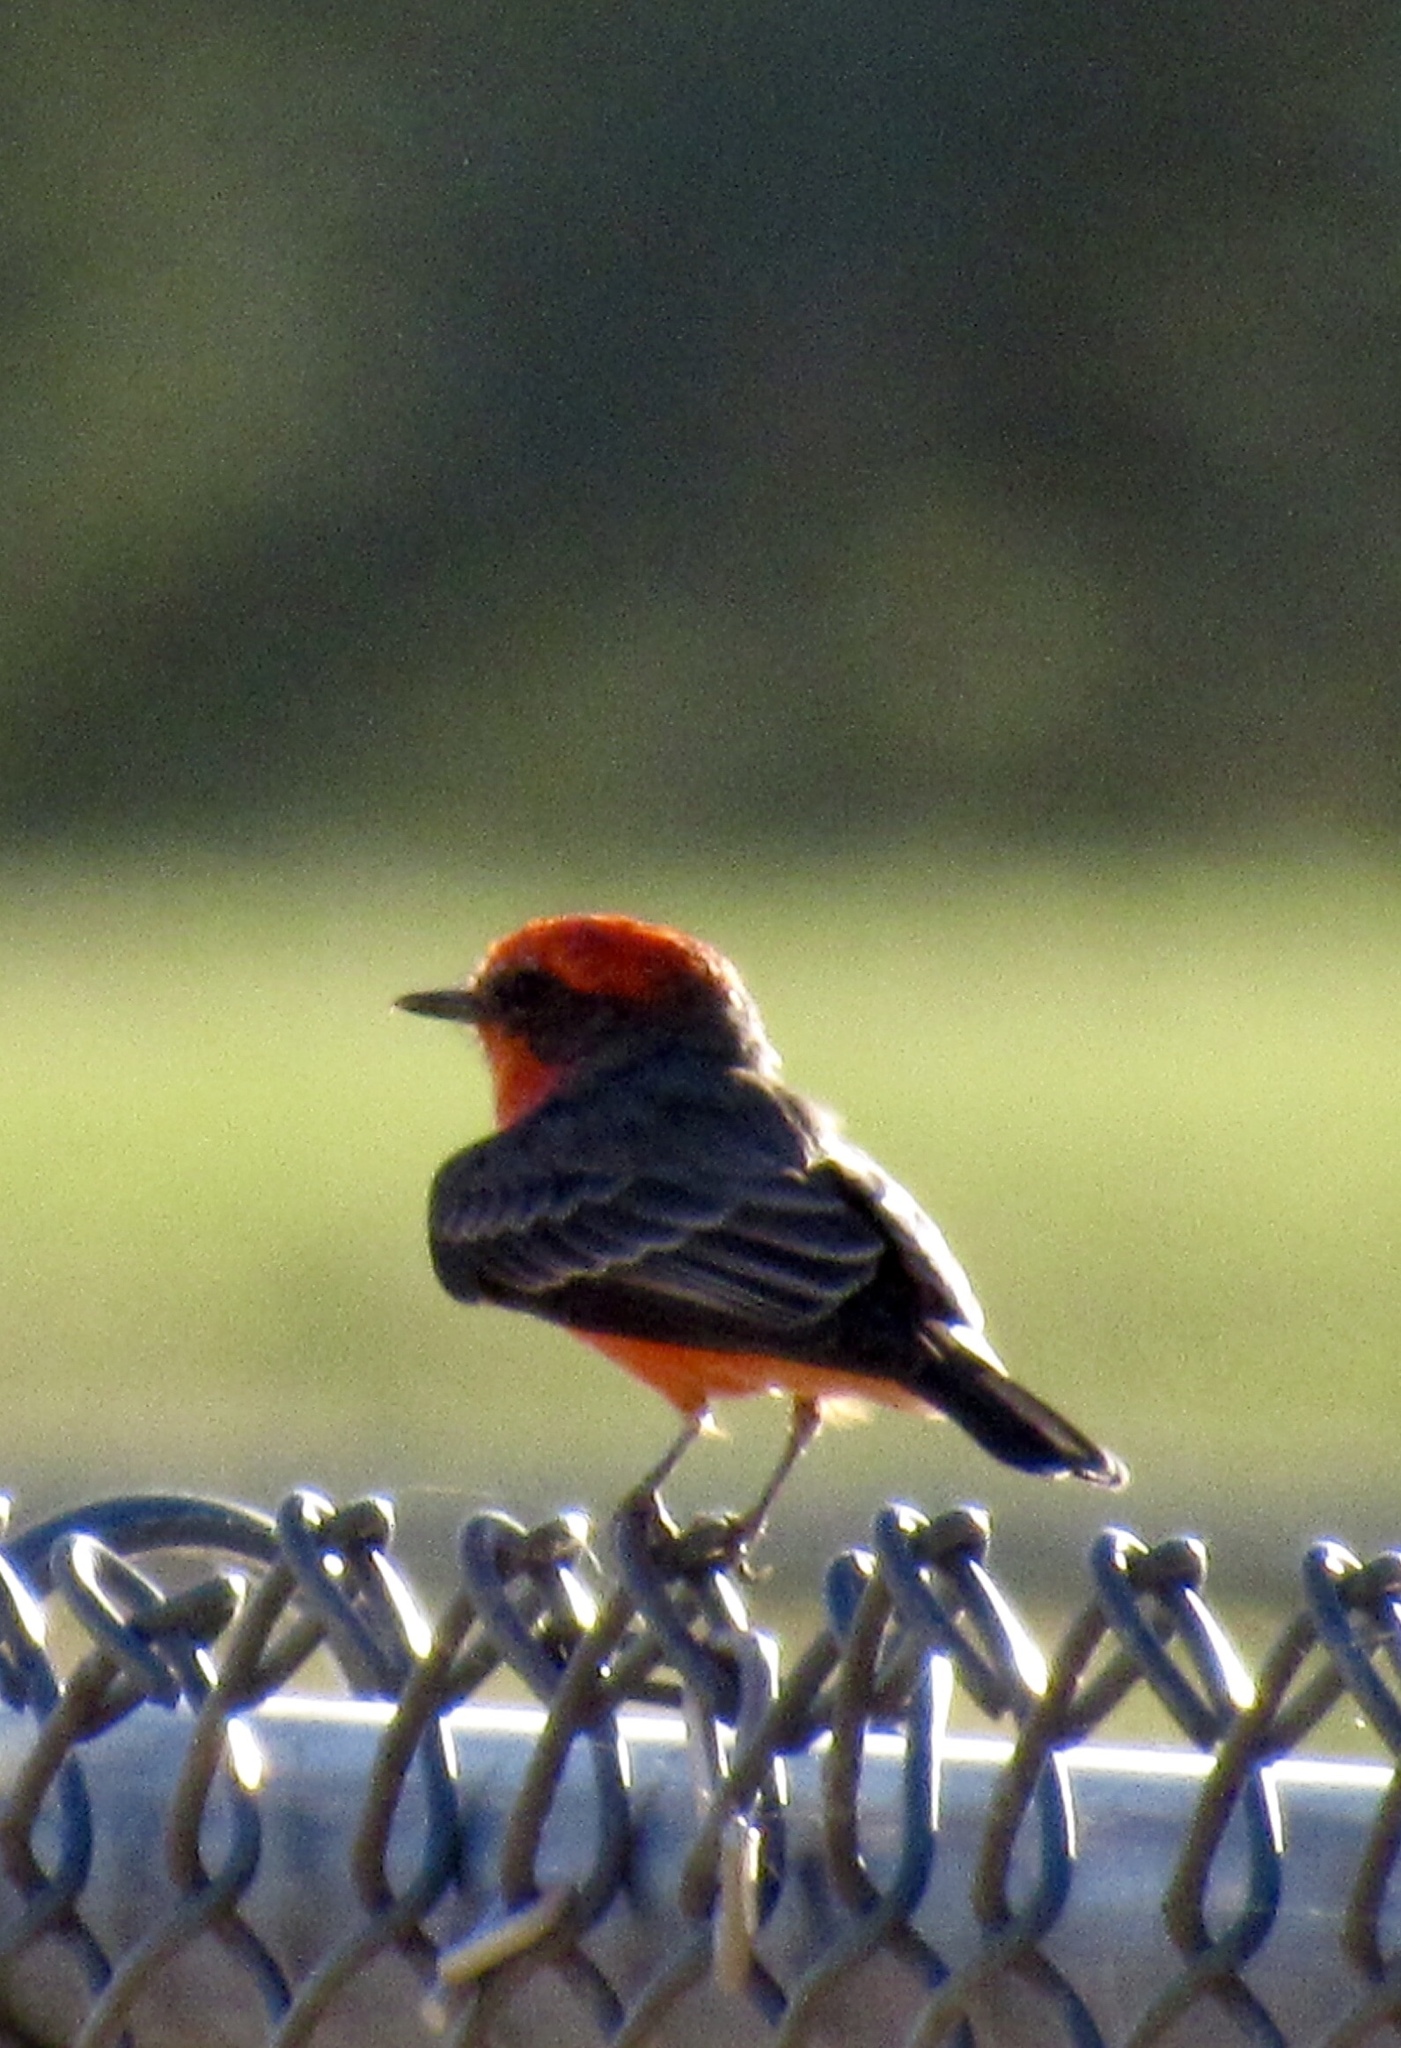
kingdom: Animalia
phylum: Chordata
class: Aves
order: Passeriformes
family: Tyrannidae
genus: Pyrocephalus
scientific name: Pyrocephalus rubinus
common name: Vermilion flycatcher
